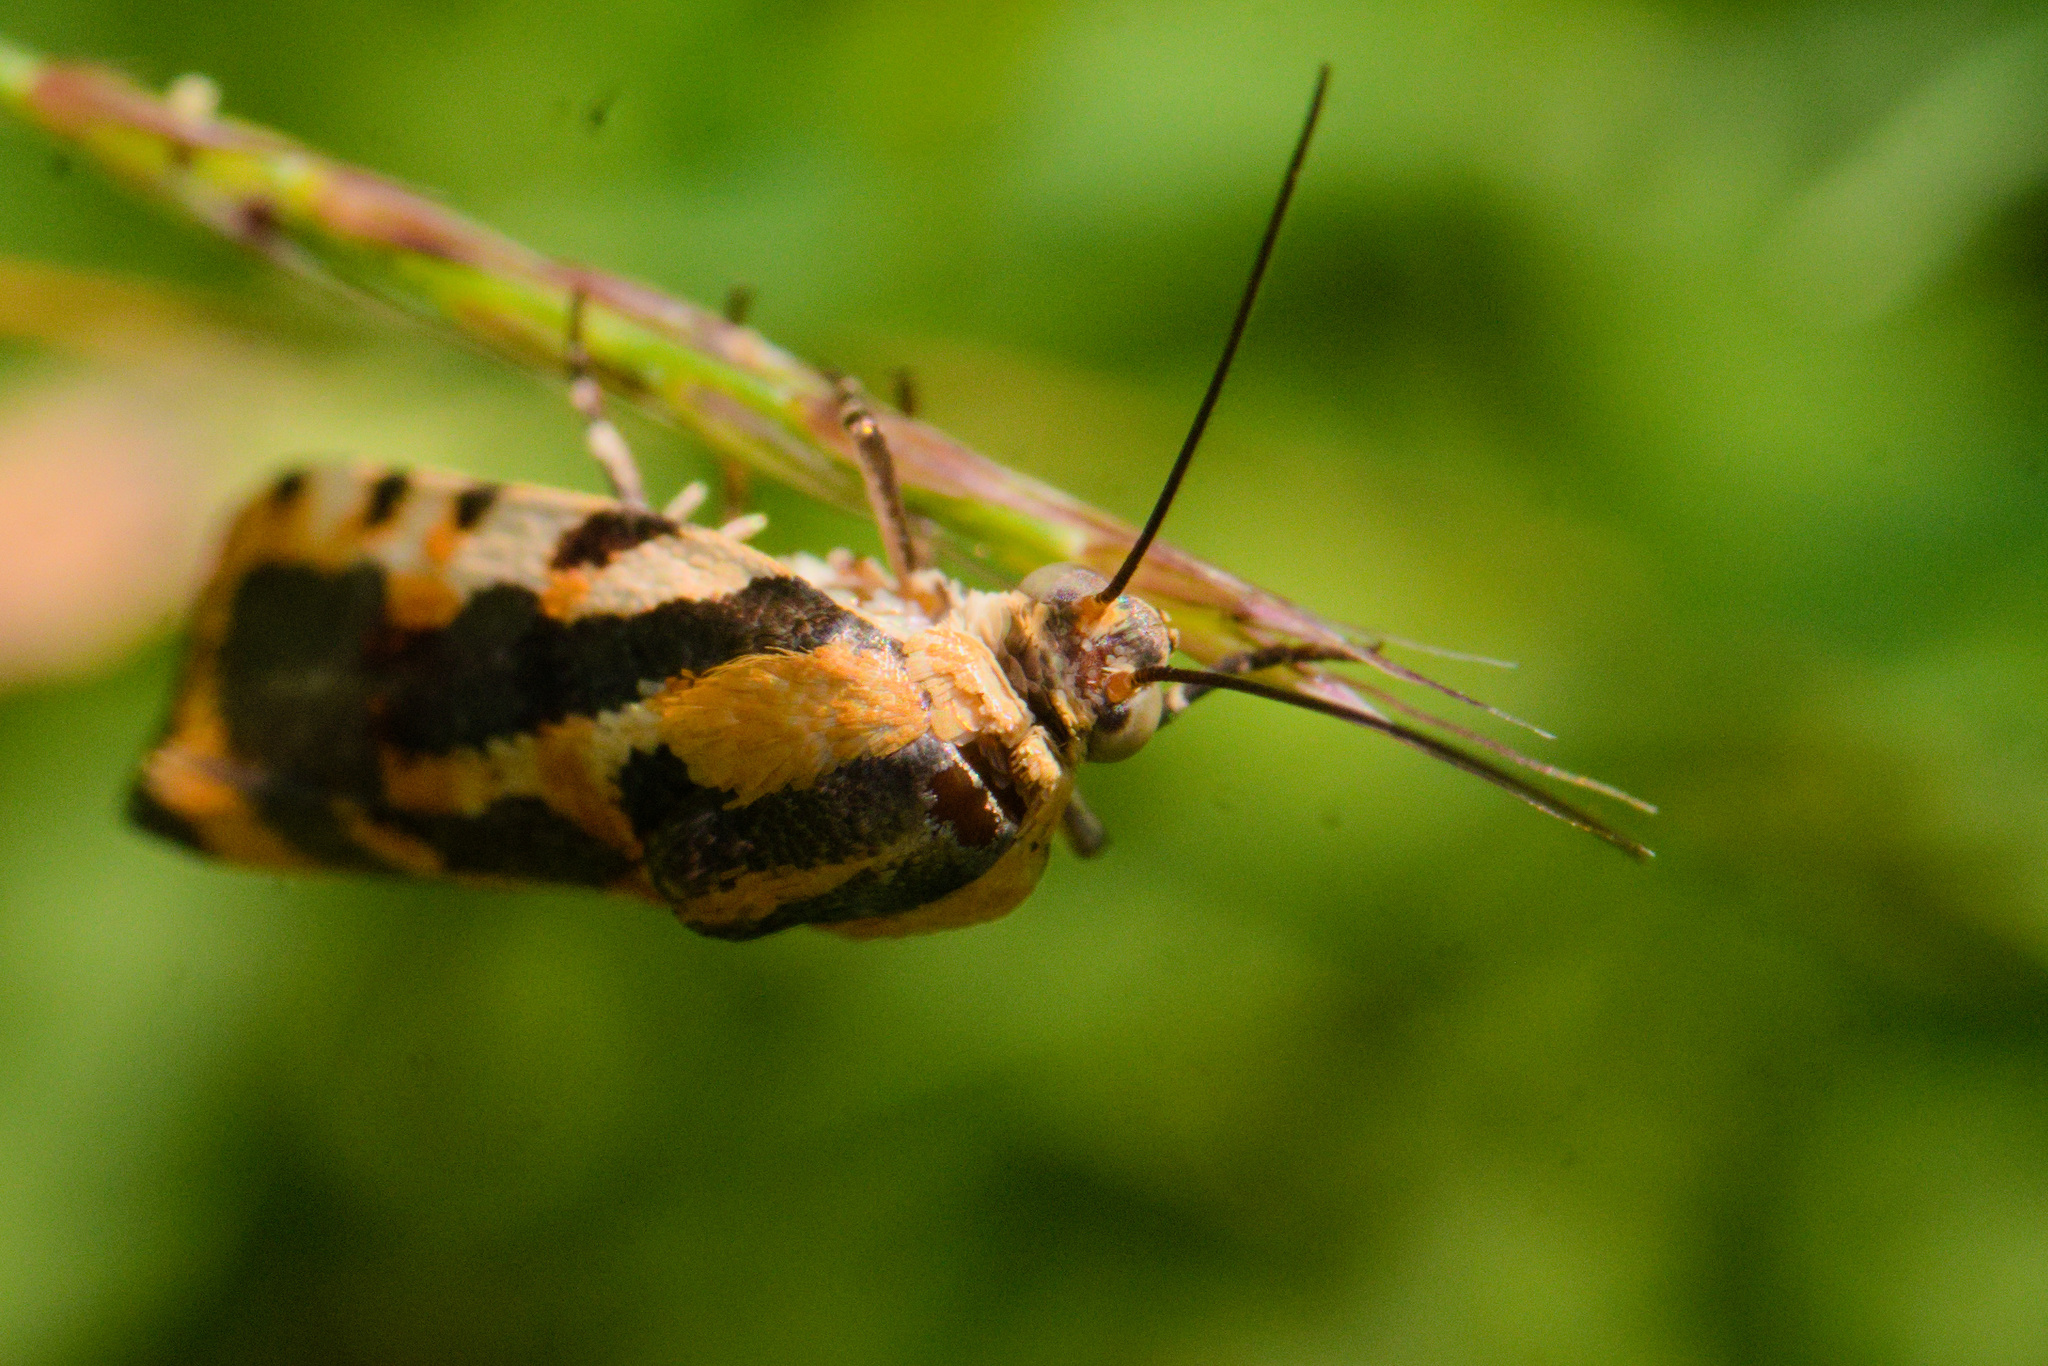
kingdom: Animalia
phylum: Arthropoda
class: Insecta
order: Lepidoptera
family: Noctuidae
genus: Acontia
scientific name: Acontia leo
